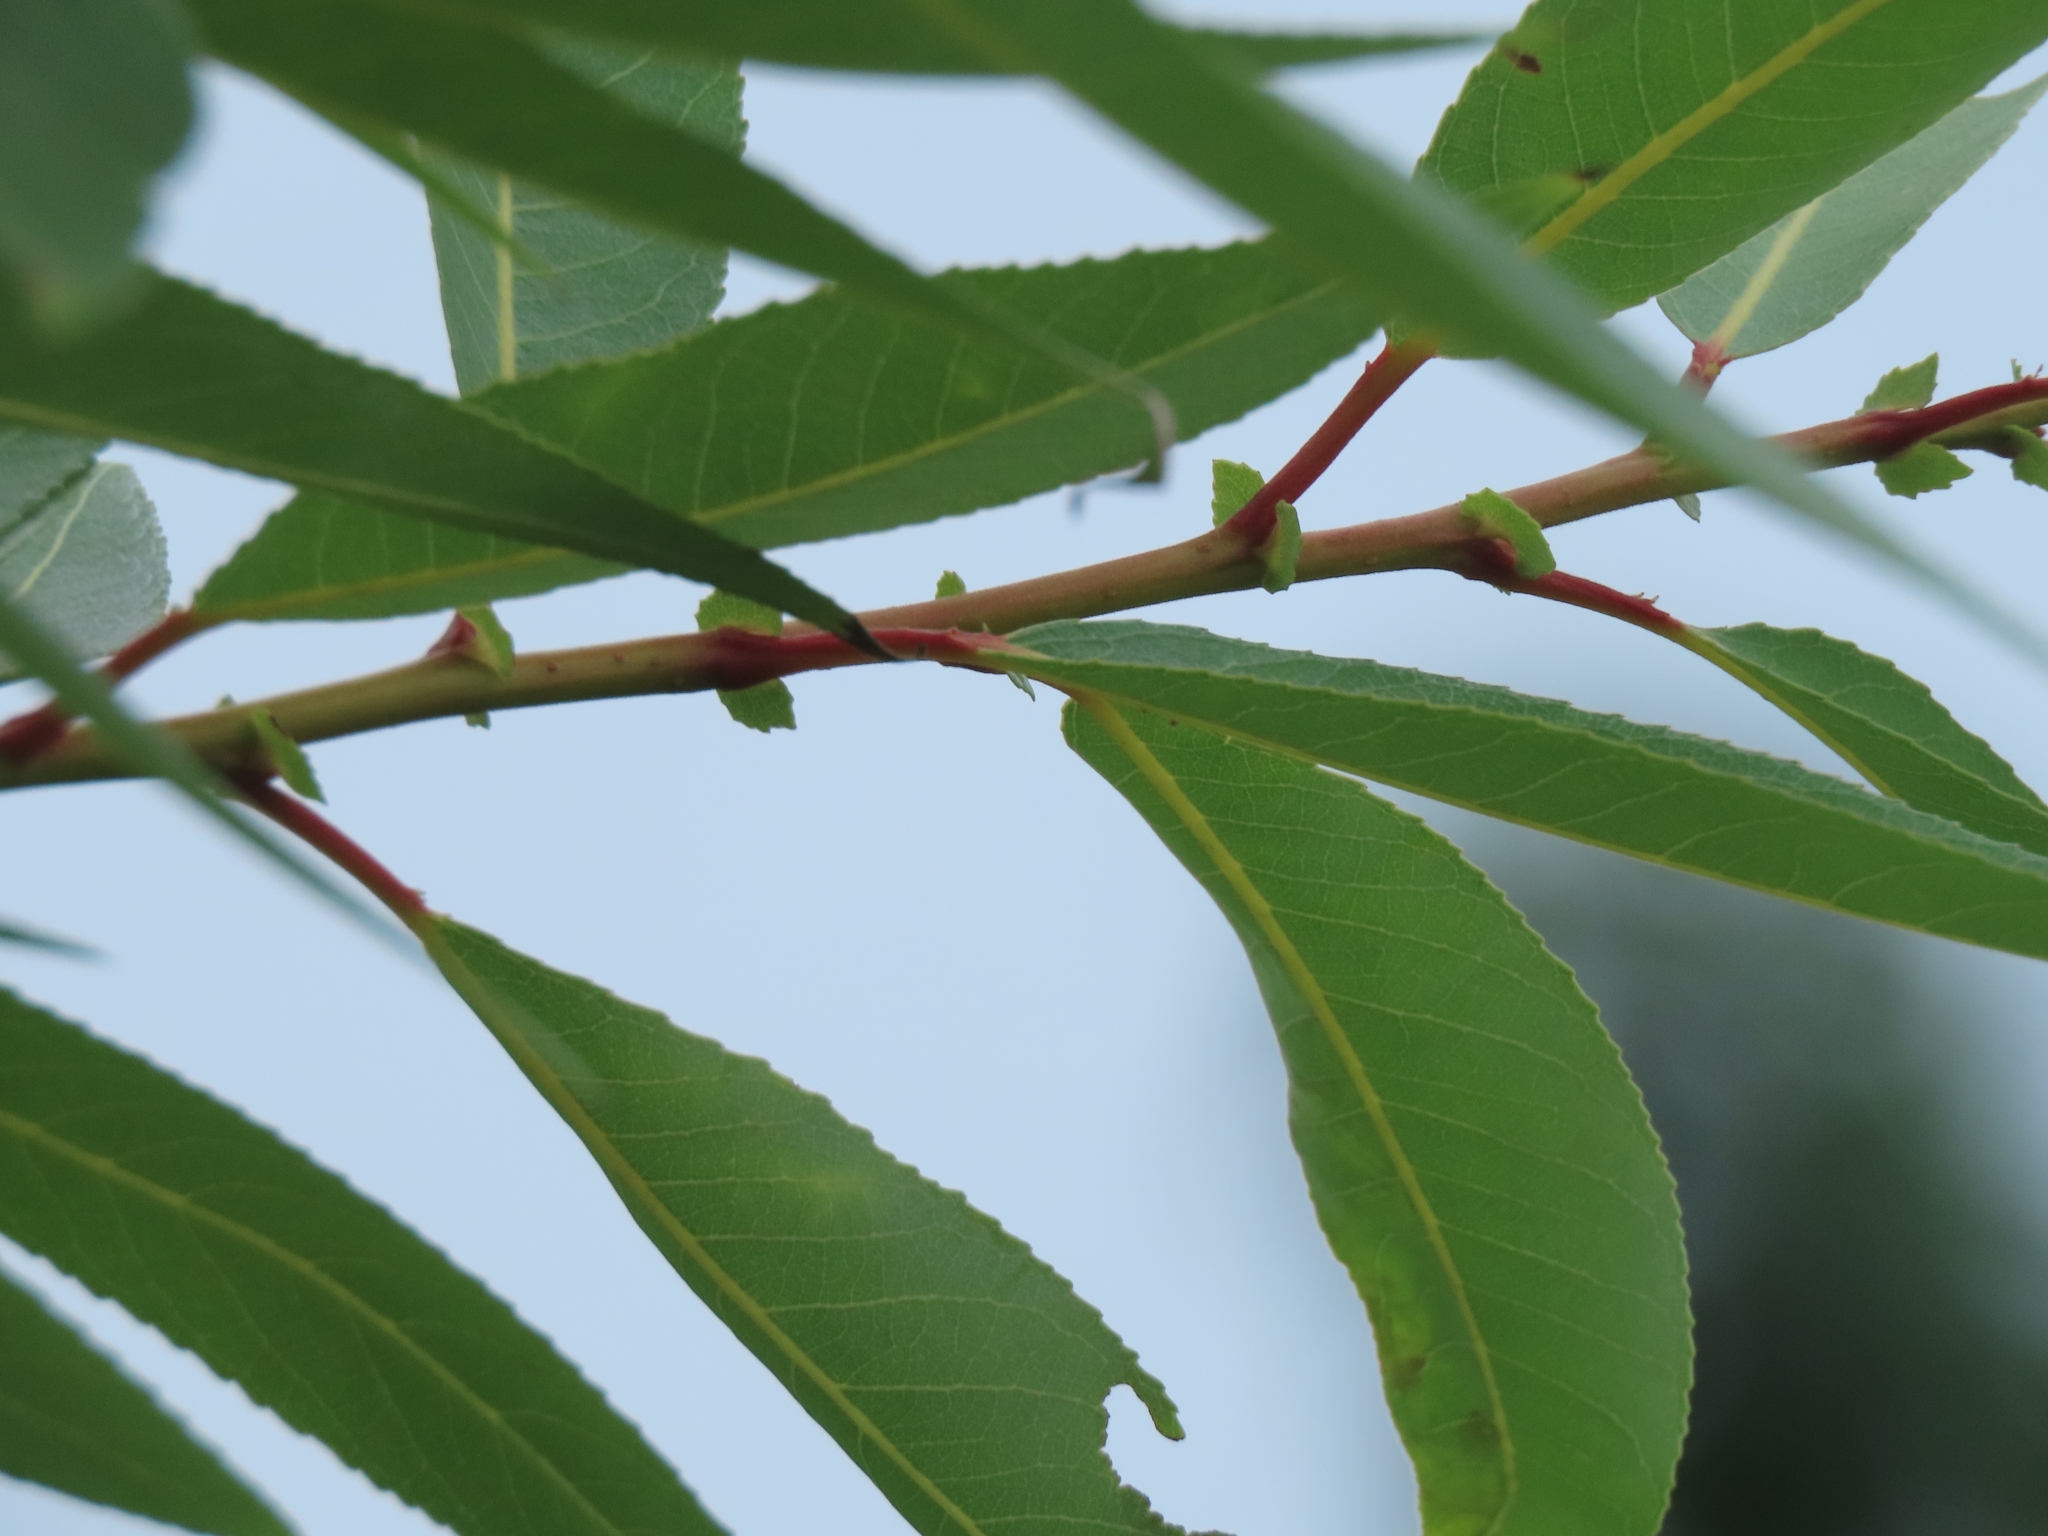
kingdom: Plantae
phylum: Tracheophyta
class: Magnoliopsida
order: Malpighiales
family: Salicaceae
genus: Salix
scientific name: Salix mesnyi
